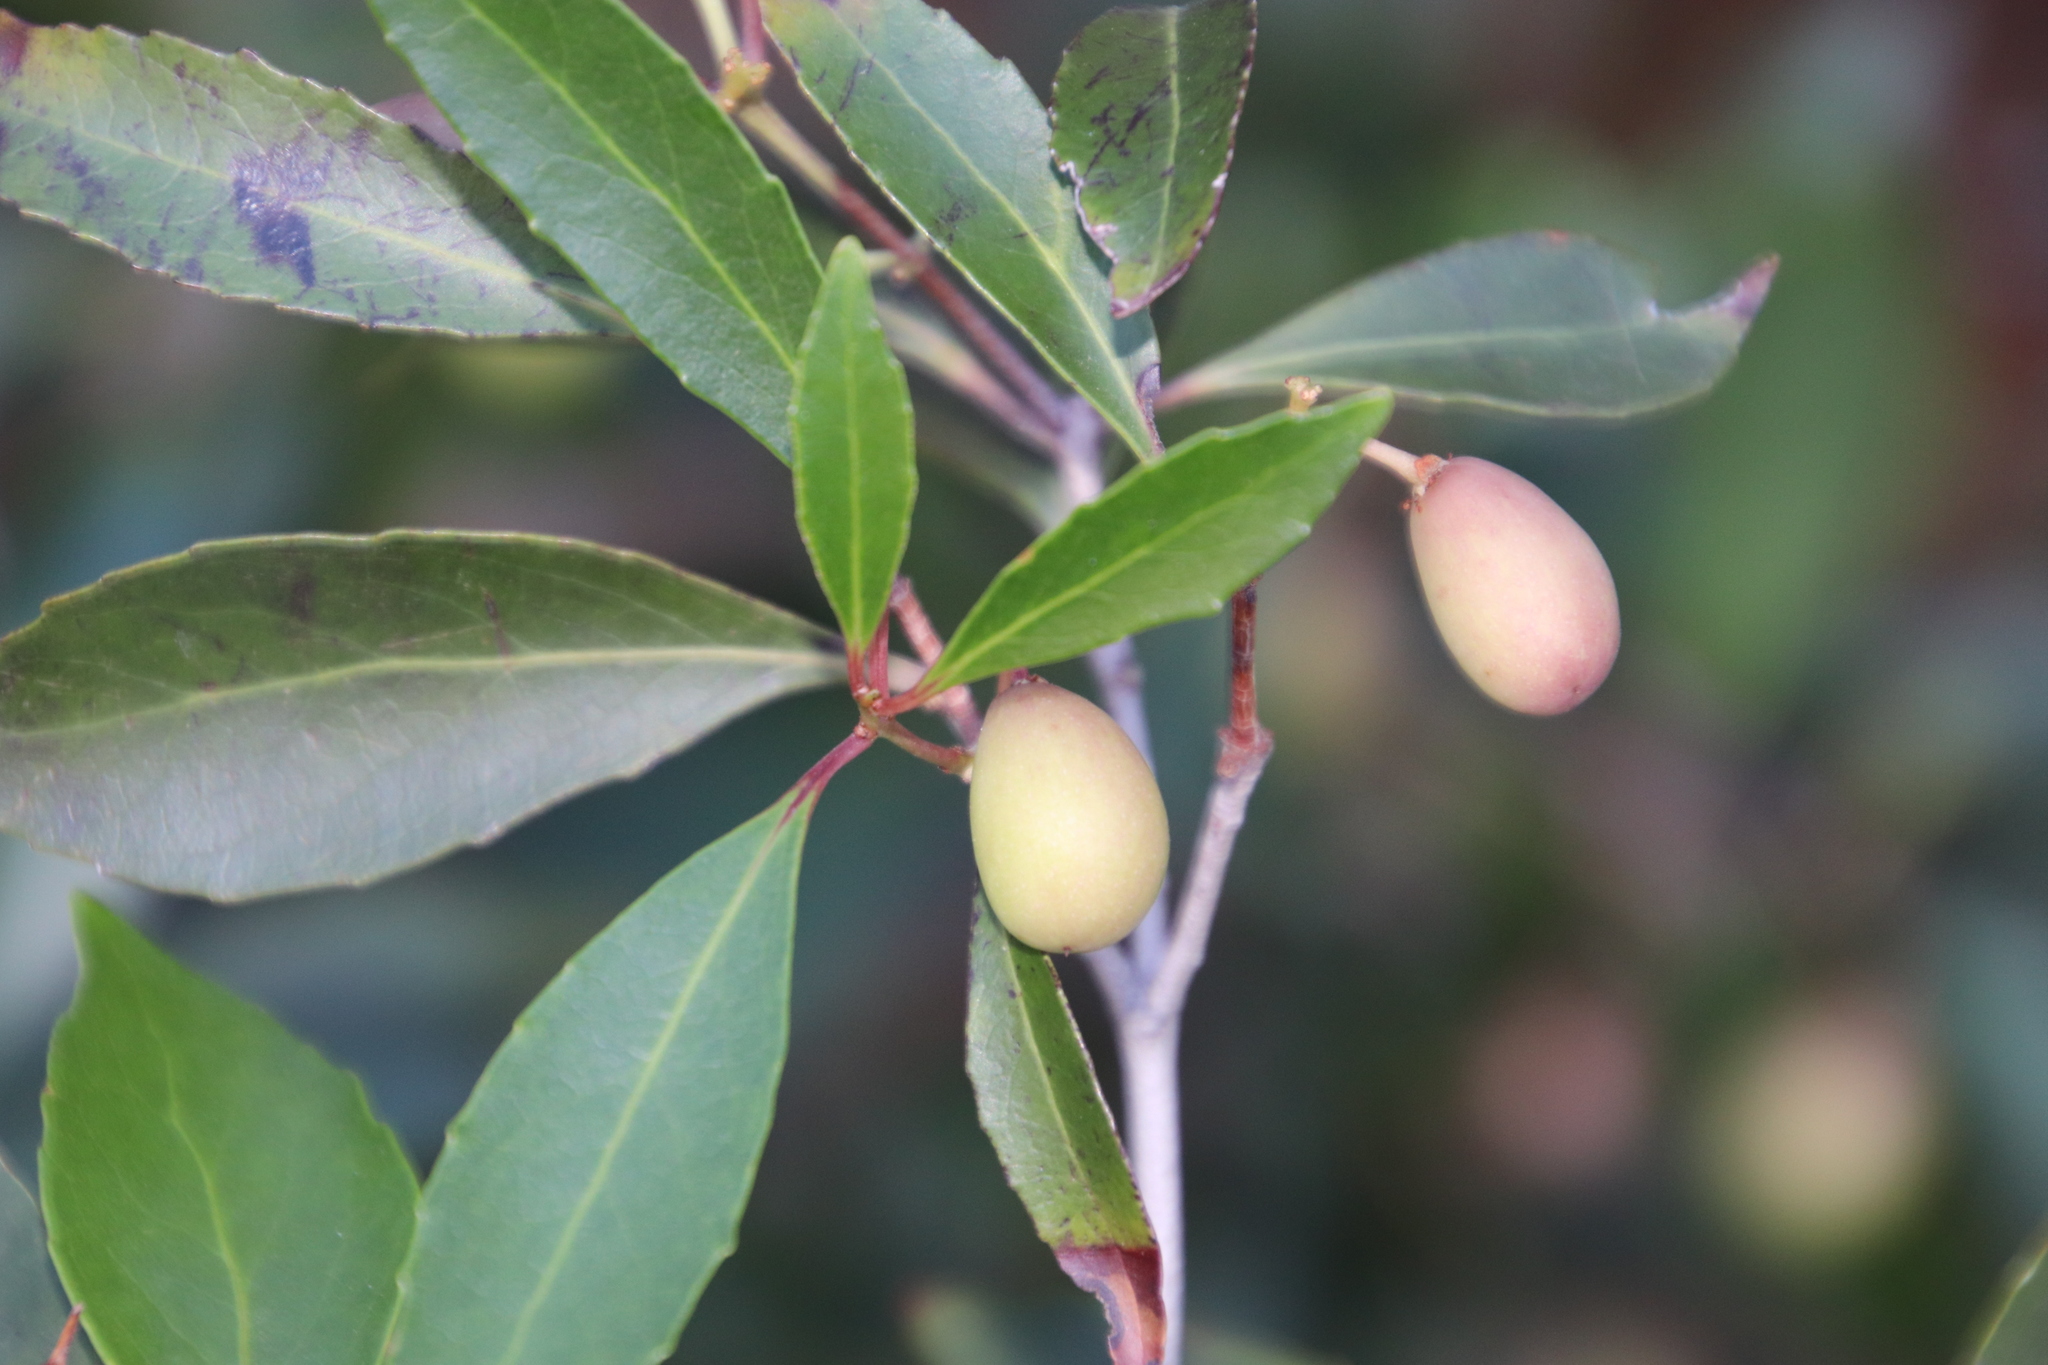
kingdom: Plantae
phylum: Tracheophyta
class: Magnoliopsida
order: Celastrales
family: Celastraceae
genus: Elaeodendron
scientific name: Elaeodendron schinoides
